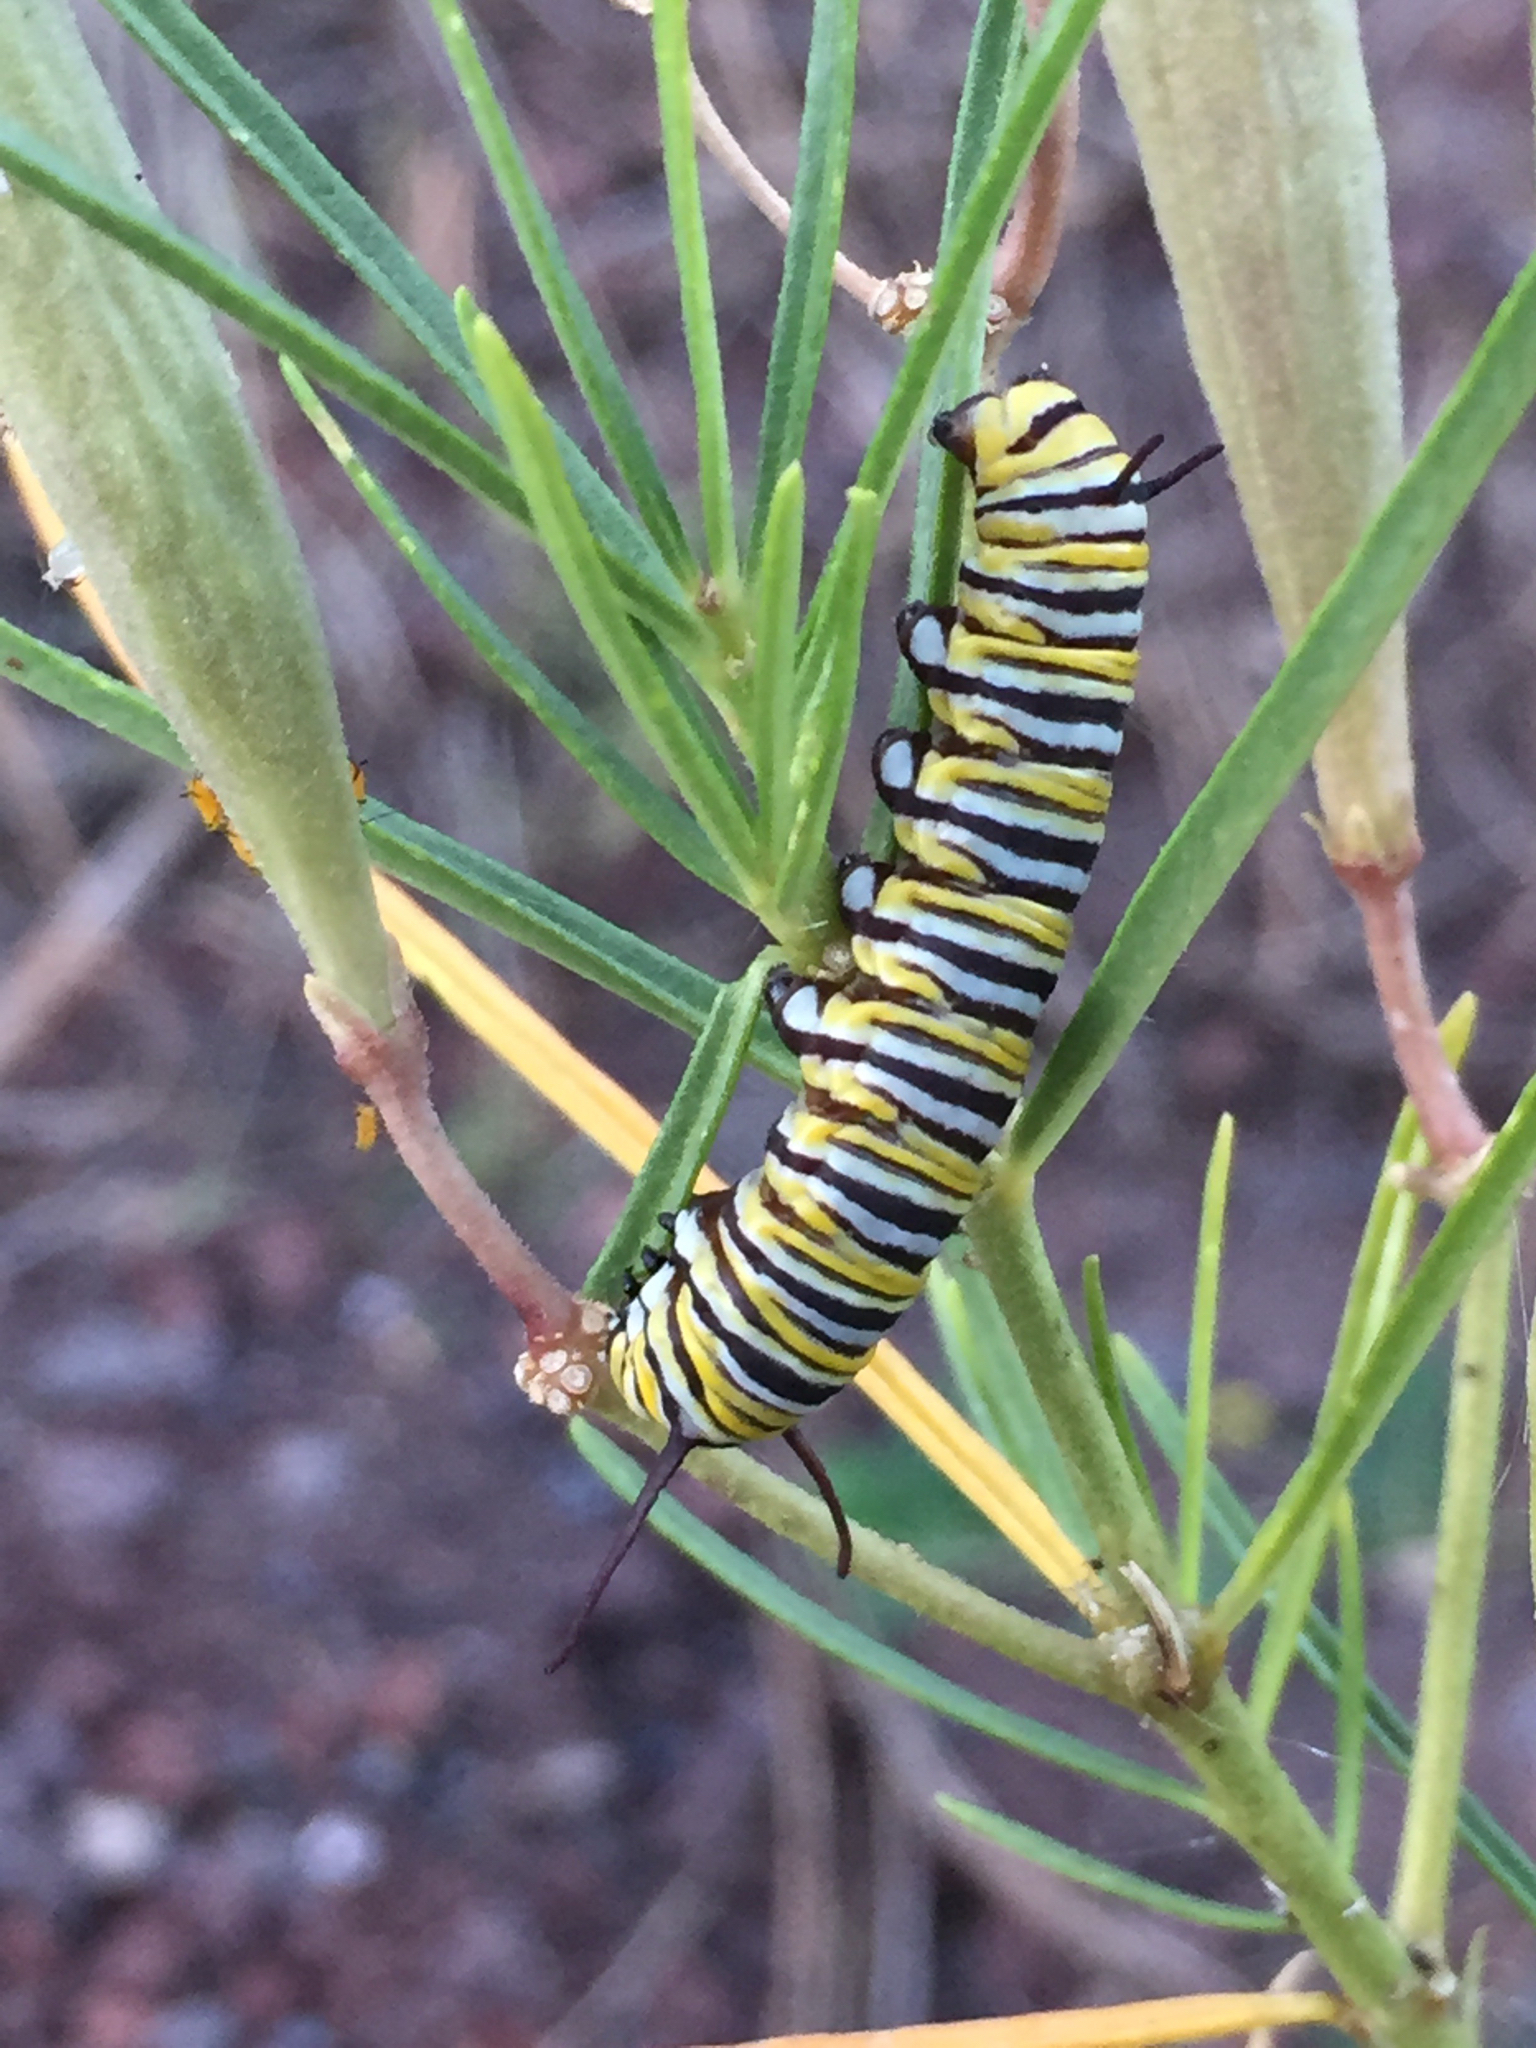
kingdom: Animalia
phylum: Arthropoda
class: Insecta
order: Lepidoptera
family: Nymphalidae
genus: Danaus
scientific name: Danaus plexippus
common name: Monarch
